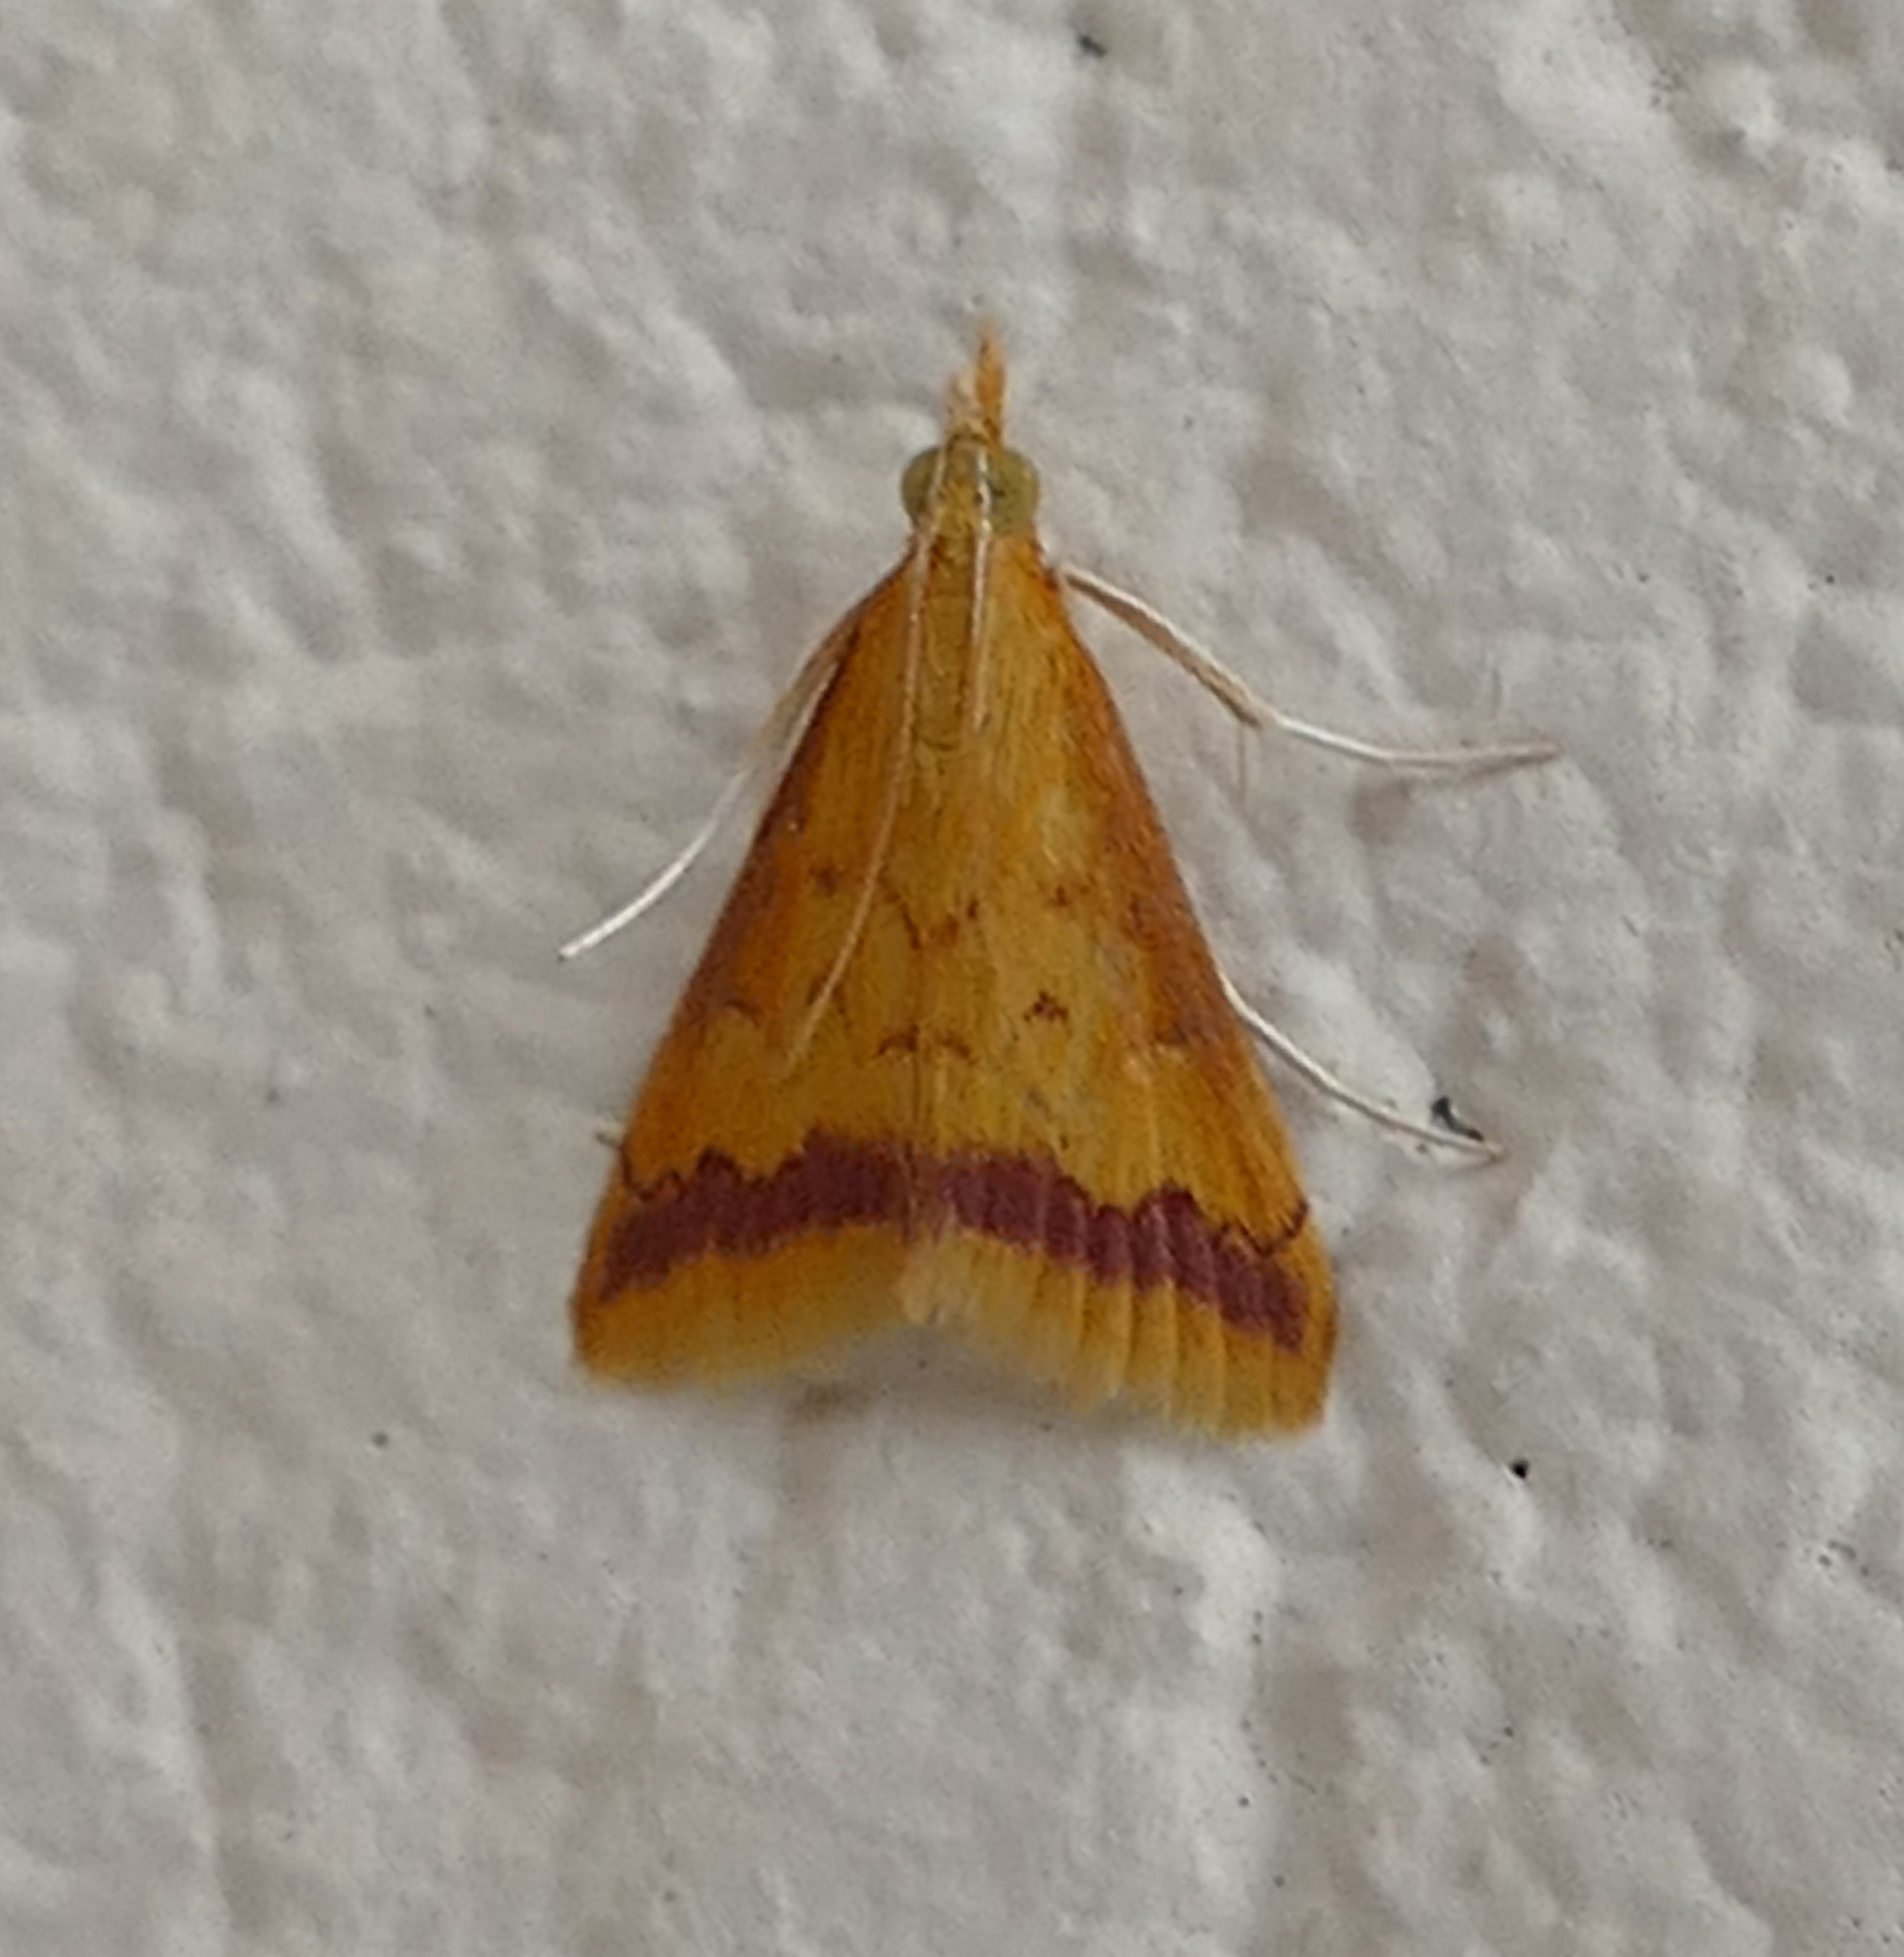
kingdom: Animalia
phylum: Arthropoda
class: Insecta
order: Lepidoptera
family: Crambidae
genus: Hyalorista
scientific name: Hyalorista taeniolalis
